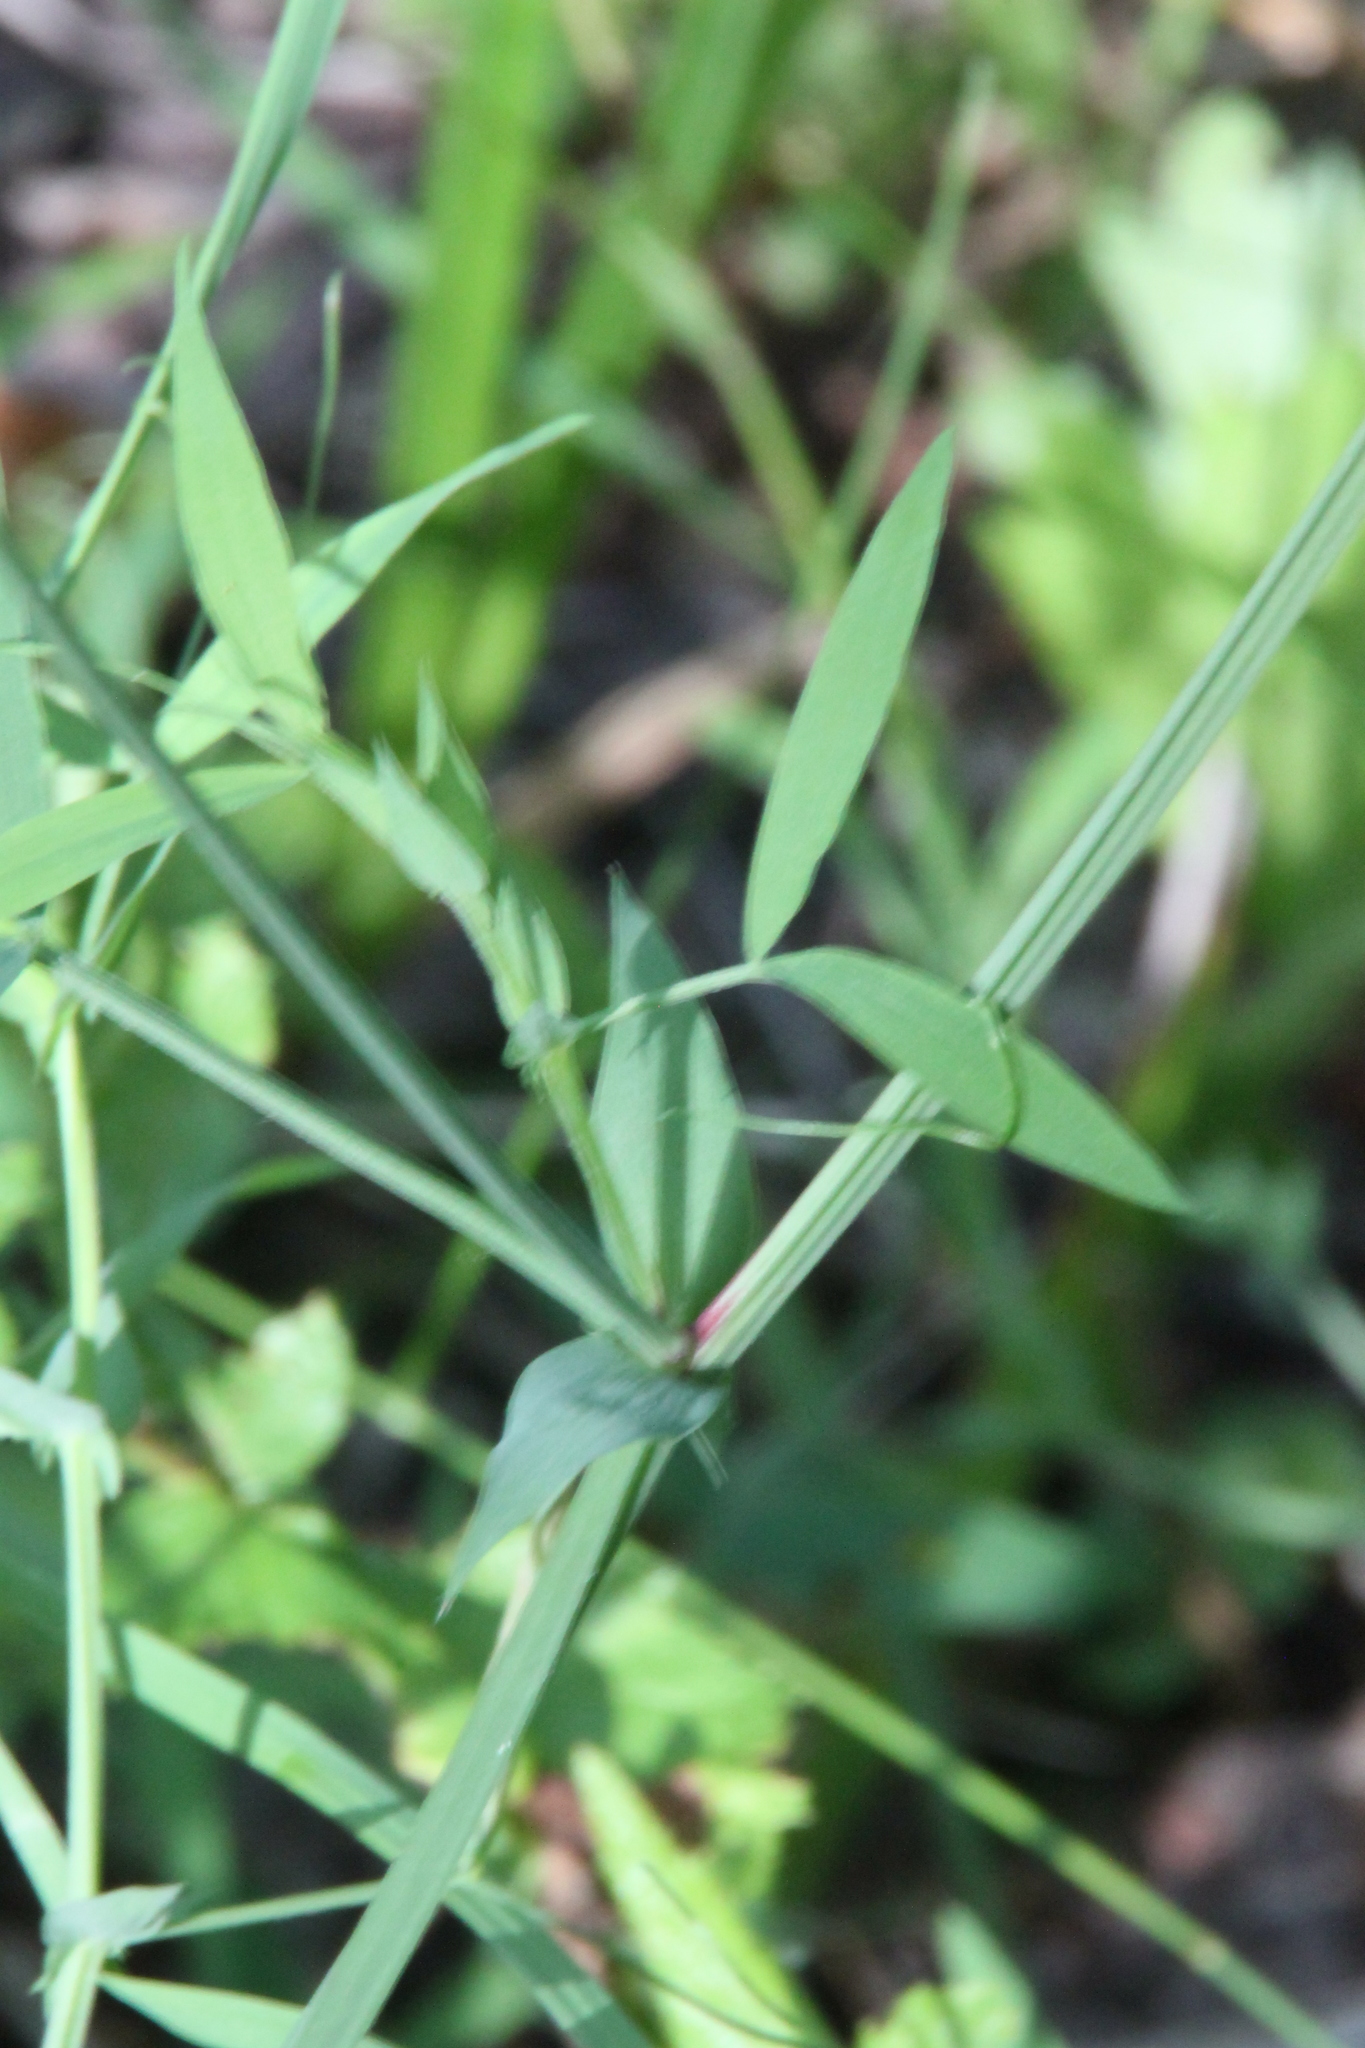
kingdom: Plantae
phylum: Tracheophyta
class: Magnoliopsida
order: Fabales
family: Fabaceae
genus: Lathyrus
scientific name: Lathyrus pratensis
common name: Meadow vetchling
